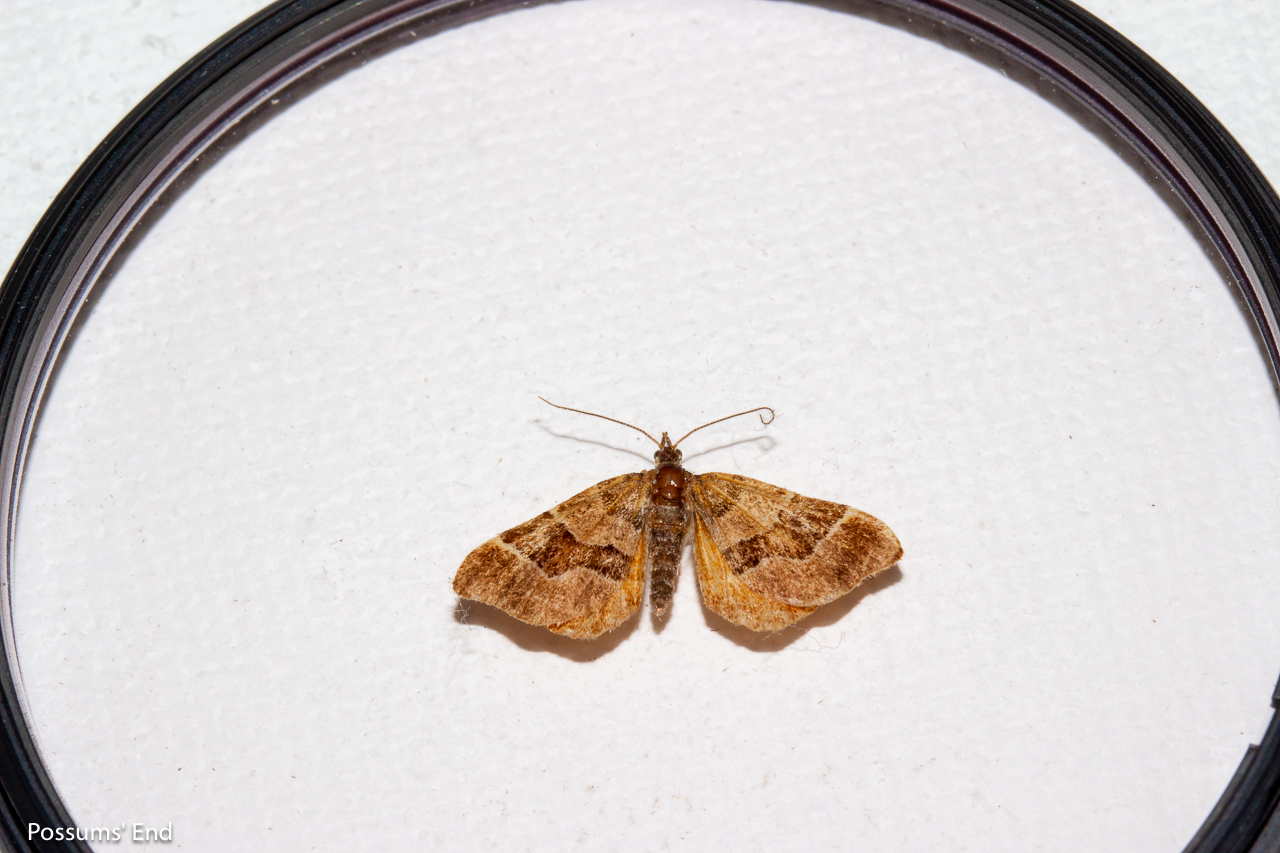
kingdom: Animalia
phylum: Arthropoda
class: Insecta
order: Lepidoptera
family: Geometridae
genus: Cephalissa
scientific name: Cephalissa siria
